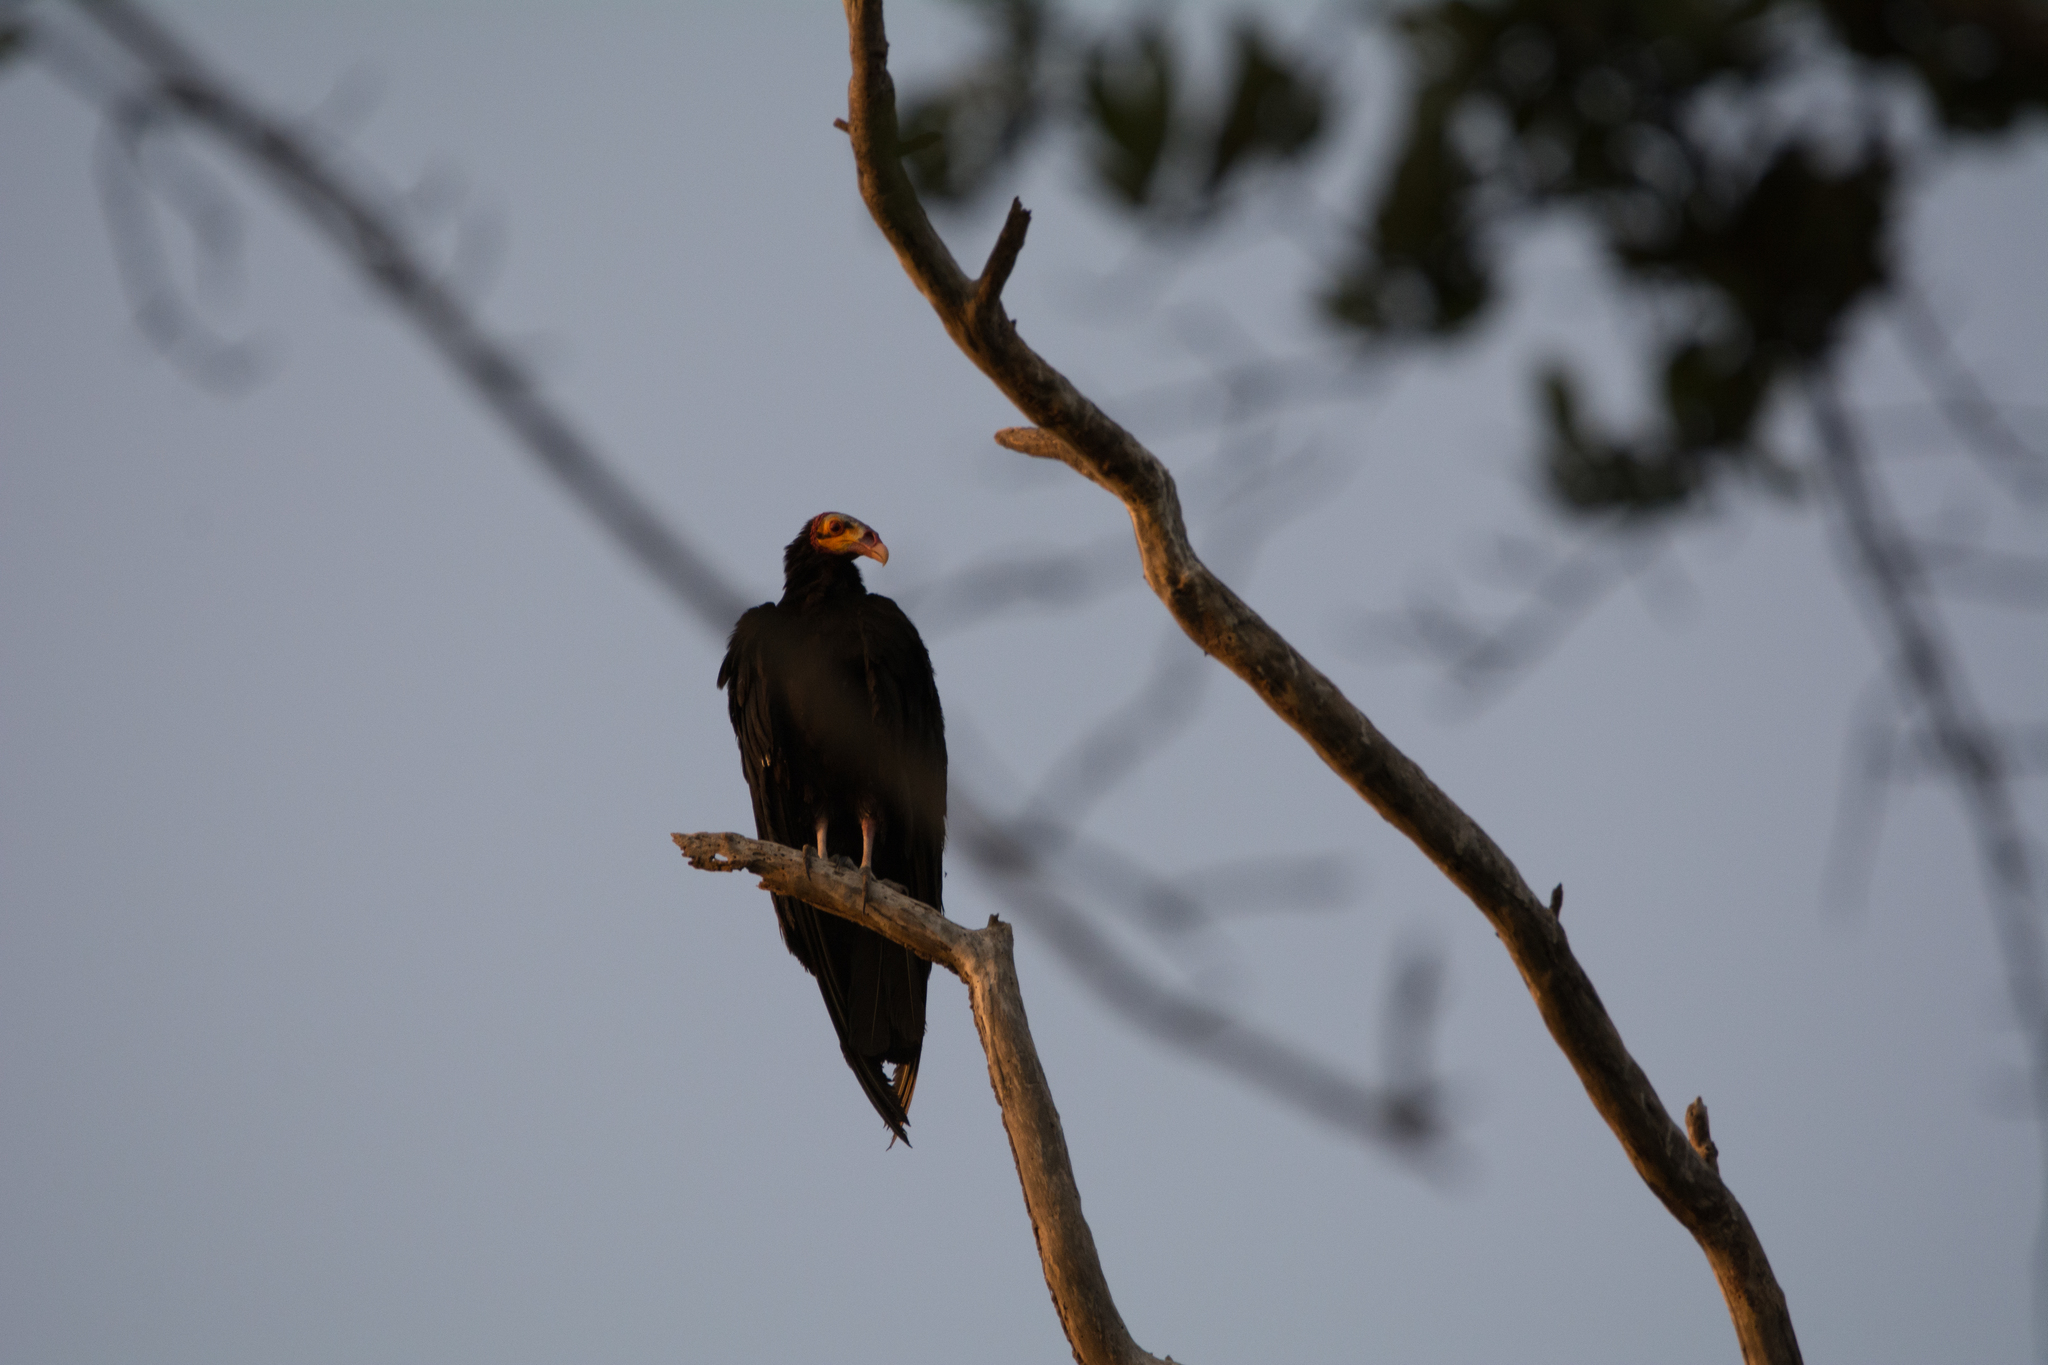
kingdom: Animalia
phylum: Chordata
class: Aves
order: Accipitriformes
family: Cathartidae
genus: Cathartes
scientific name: Cathartes burrovianus
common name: Lesser yellow-headed vulture
